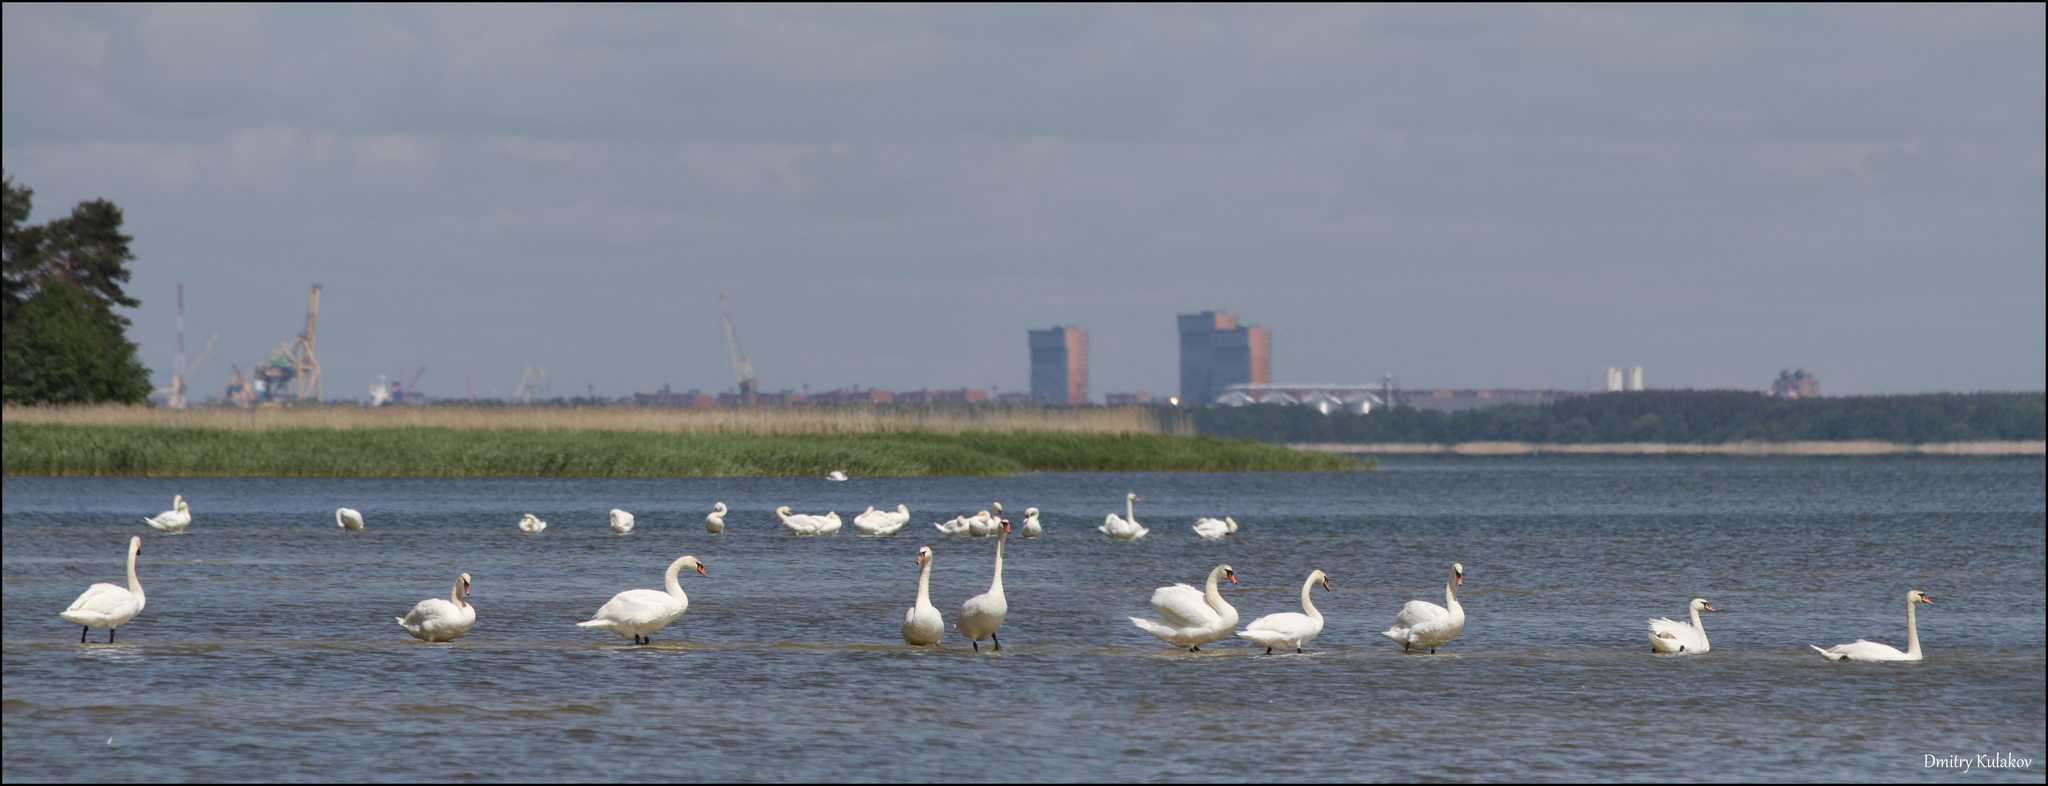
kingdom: Animalia
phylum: Chordata
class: Aves
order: Anseriformes
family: Anatidae
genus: Cygnus
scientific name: Cygnus olor
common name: Mute swan
